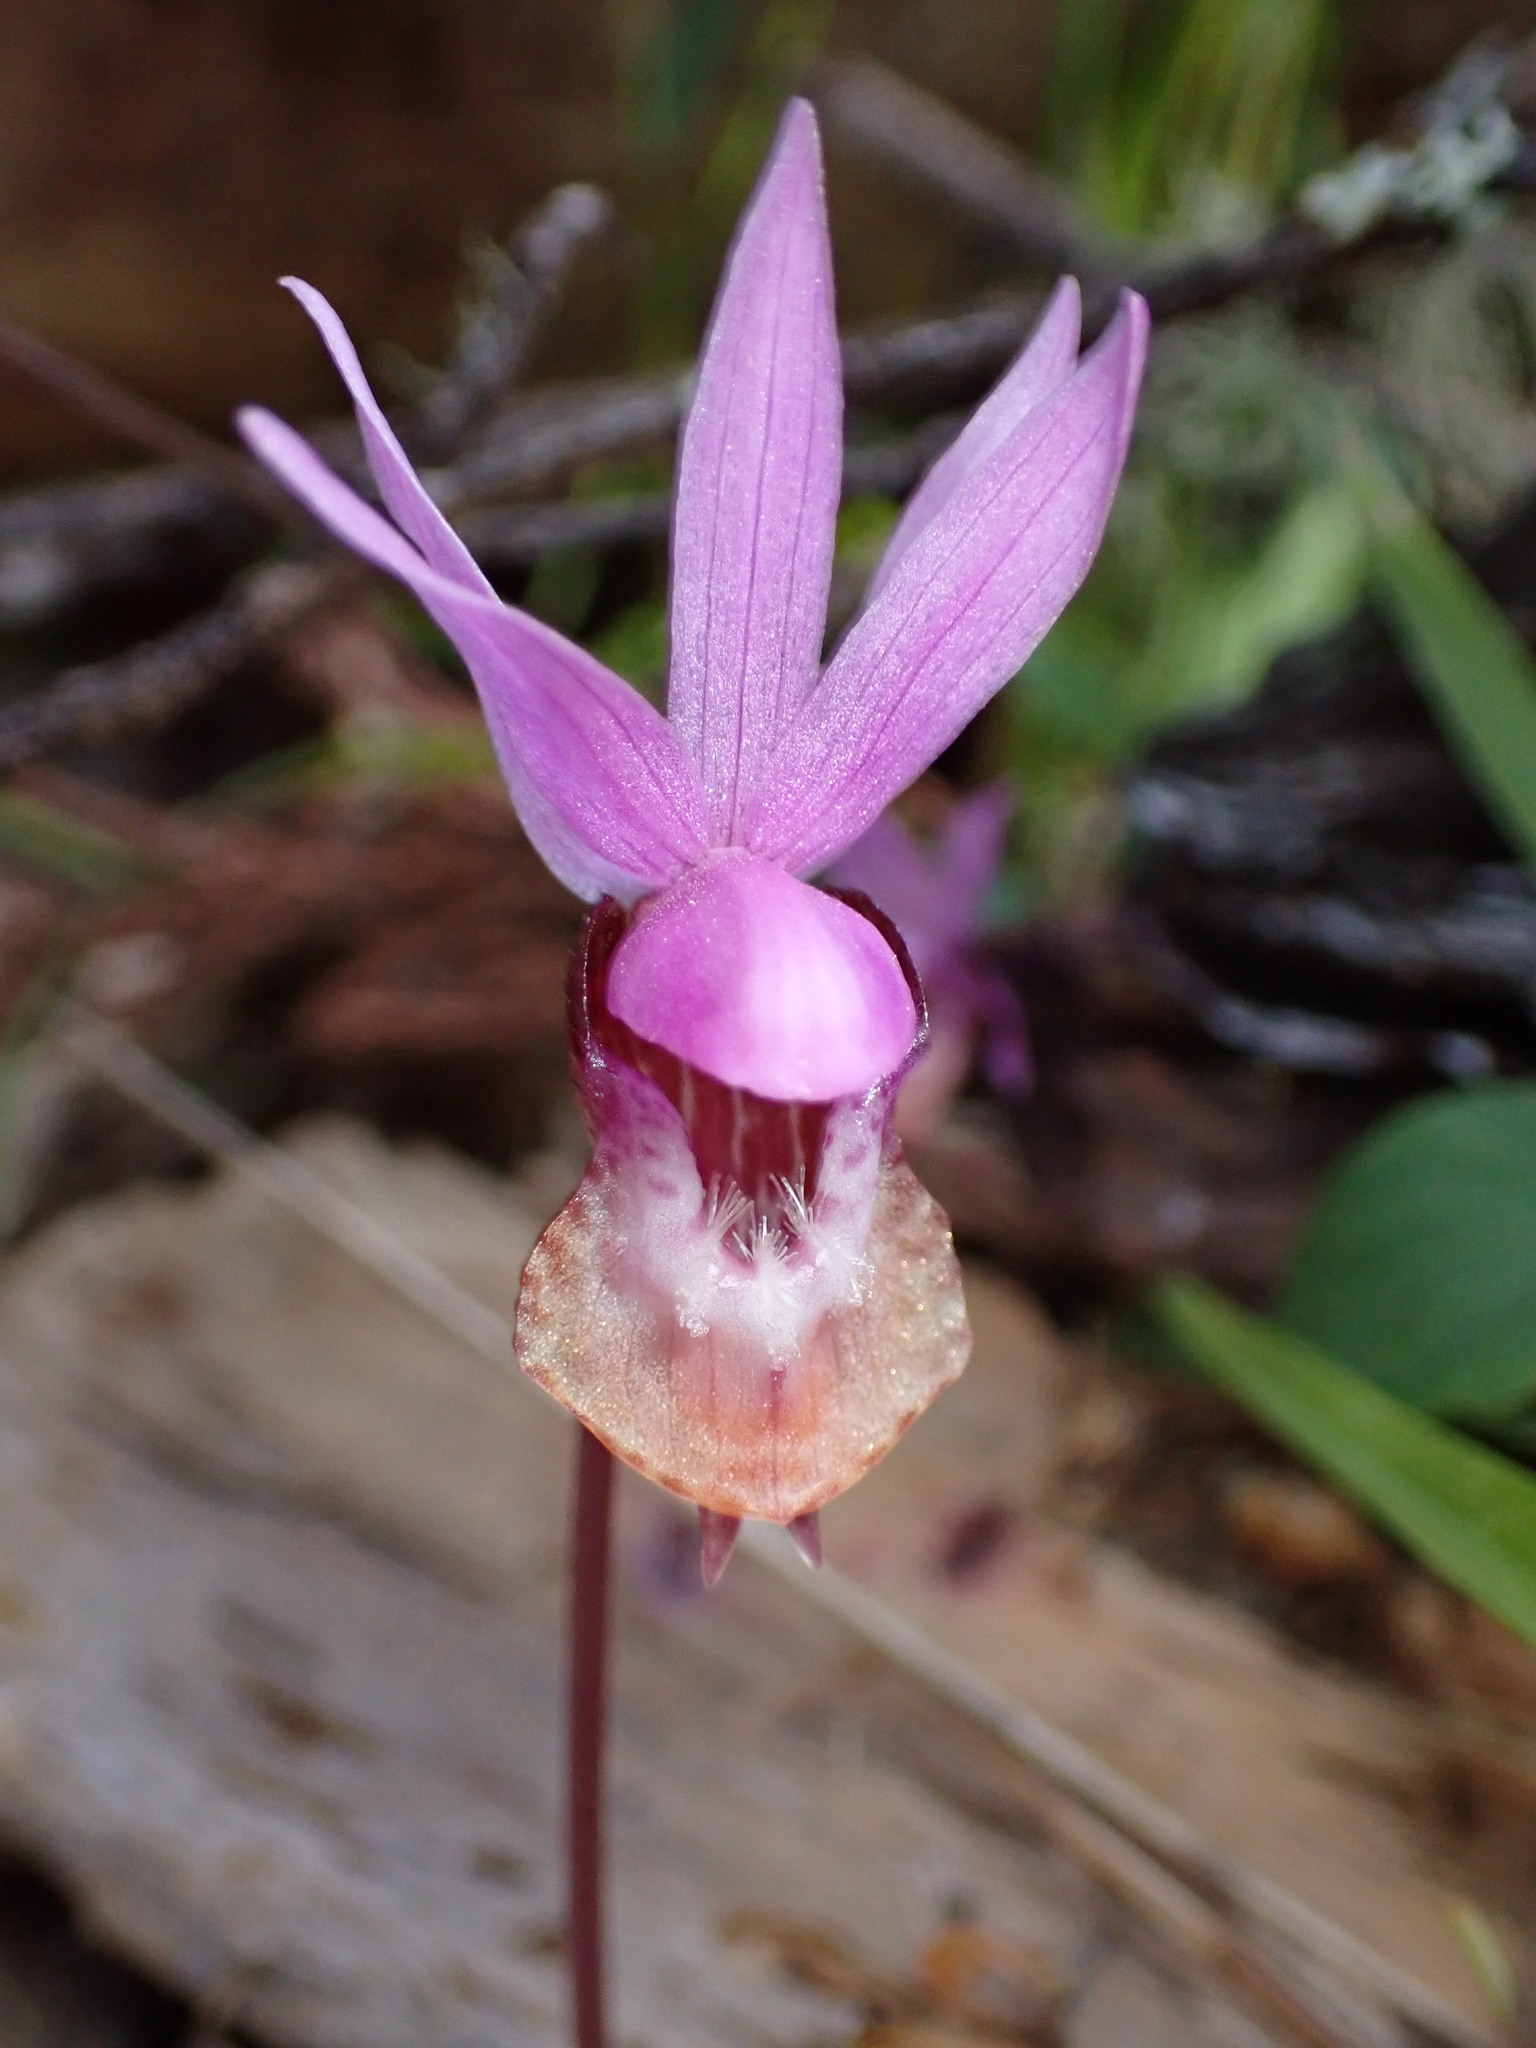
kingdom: Plantae
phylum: Tracheophyta
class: Liliopsida
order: Asparagales
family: Orchidaceae
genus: Calypso
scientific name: Calypso bulbosa
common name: Calypso
